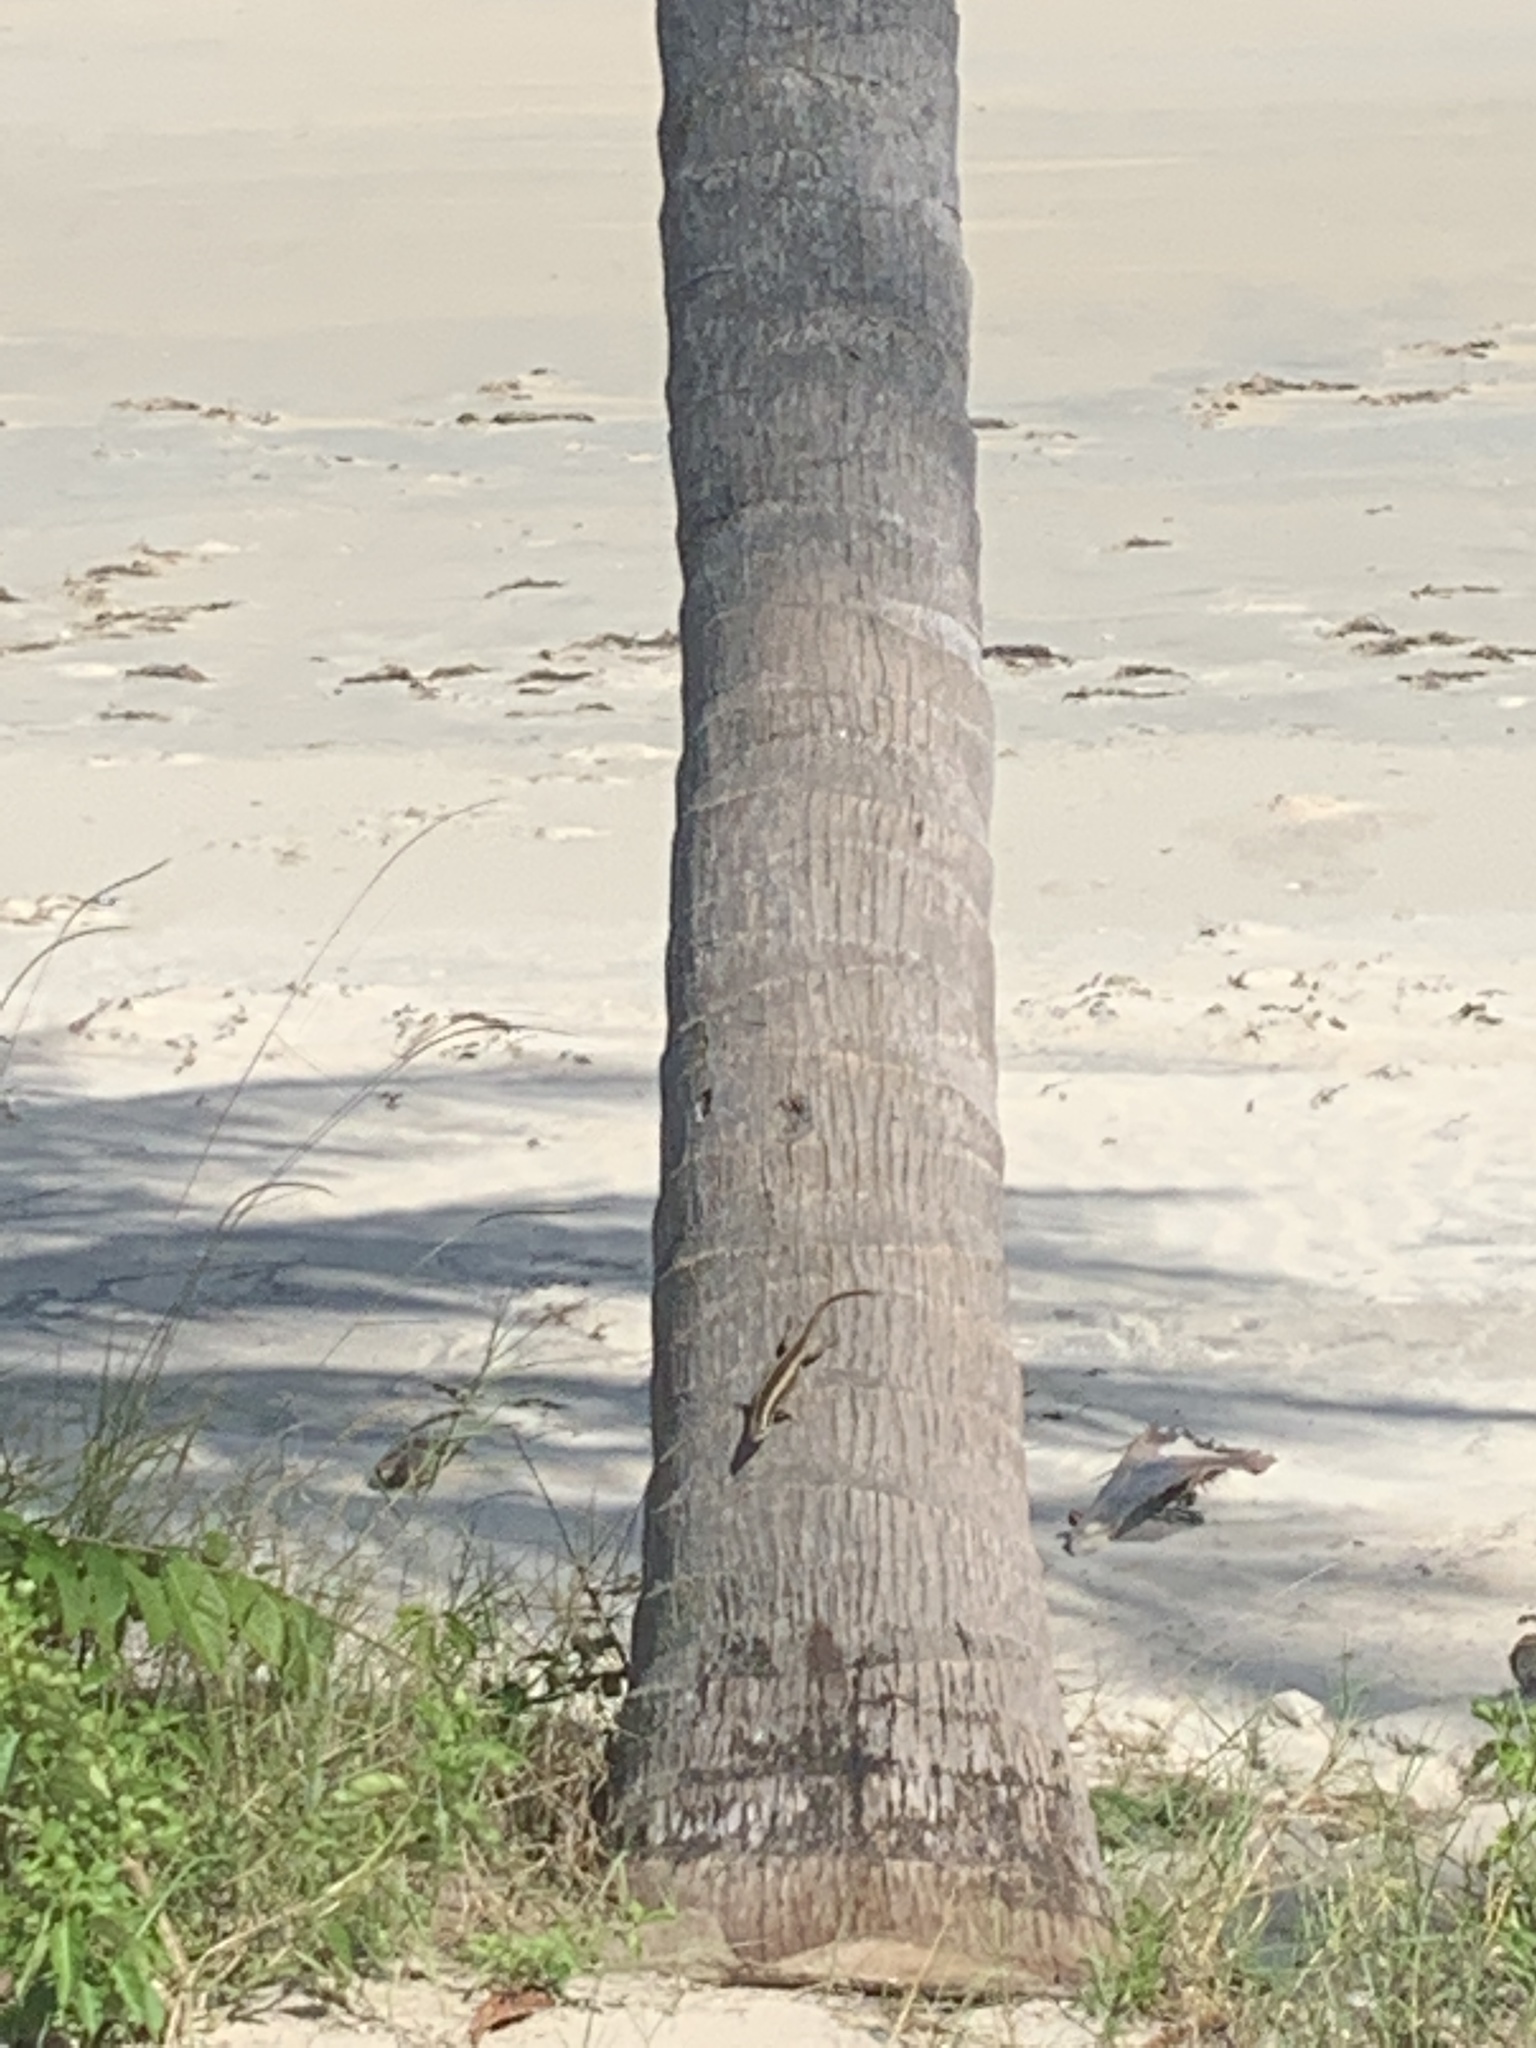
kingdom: Animalia
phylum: Chordata
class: Squamata
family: Scincidae
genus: Trachylepis
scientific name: Trachylepis striata
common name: African striped mabuya
